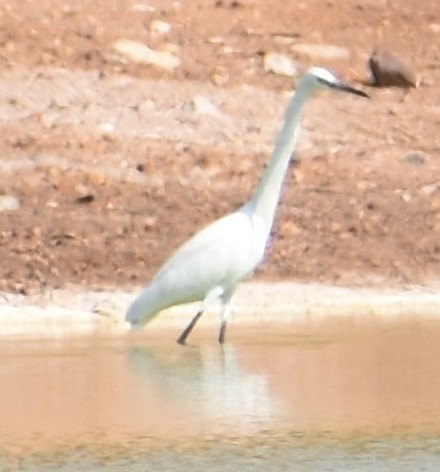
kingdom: Animalia
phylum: Chordata
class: Aves
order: Pelecaniformes
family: Ardeidae
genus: Egretta
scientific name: Egretta garzetta
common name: Little egret
